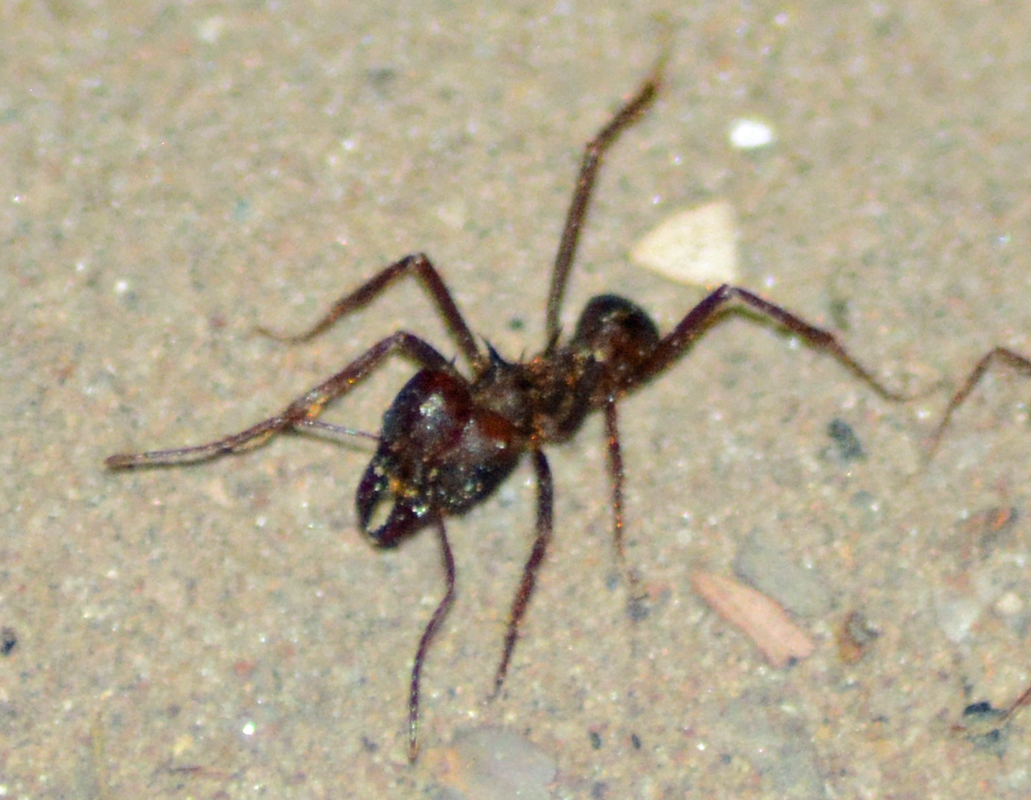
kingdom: Animalia
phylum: Arthropoda
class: Insecta
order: Hymenoptera
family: Formicidae
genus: Atta
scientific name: Atta mexicana
